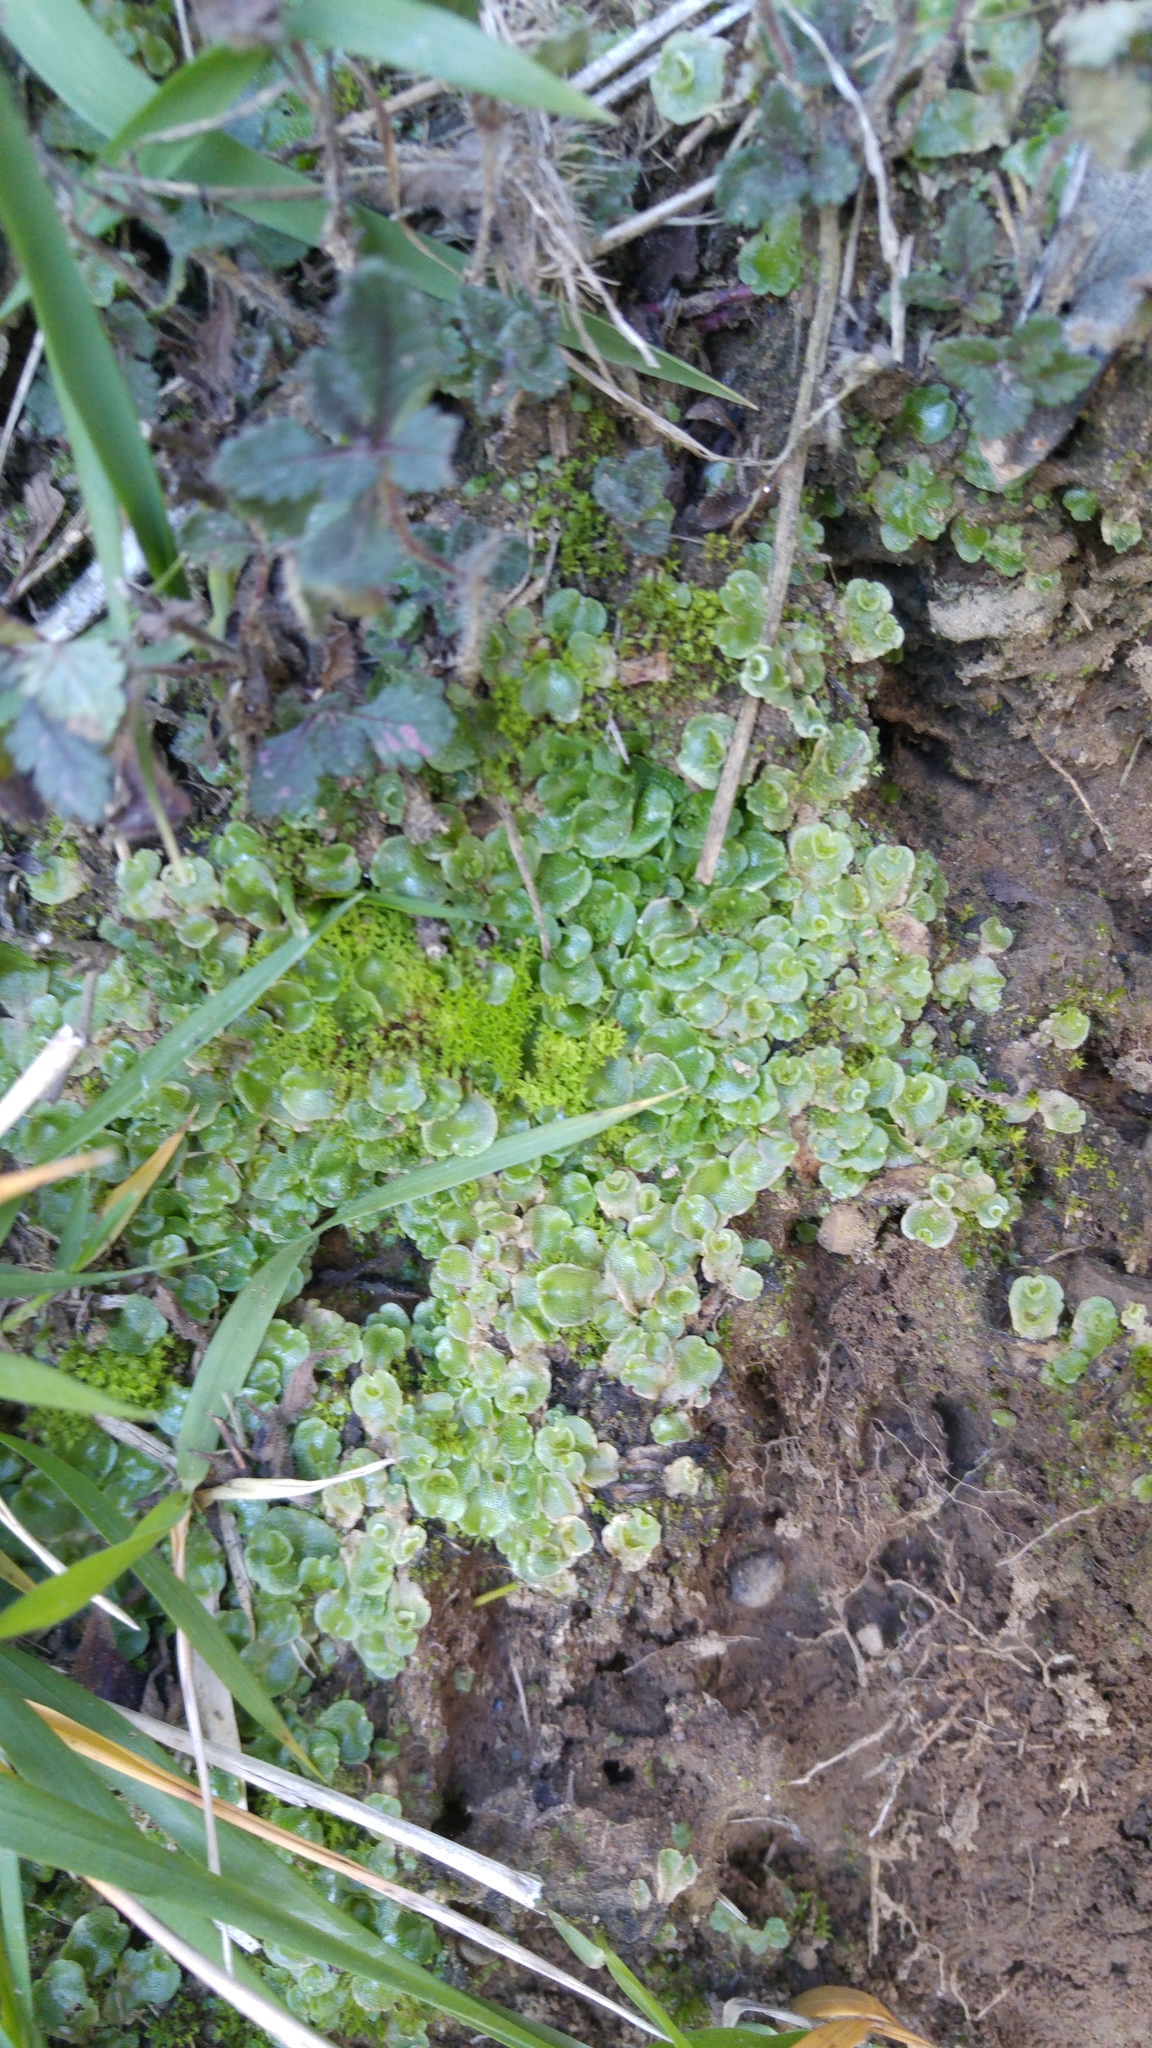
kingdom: Plantae
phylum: Marchantiophyta
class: Marchantiopsida
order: Lunulariales
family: Lunulariaceae
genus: Lunularia
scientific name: Lunularia cruciata
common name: Crescent-cup liverwort
